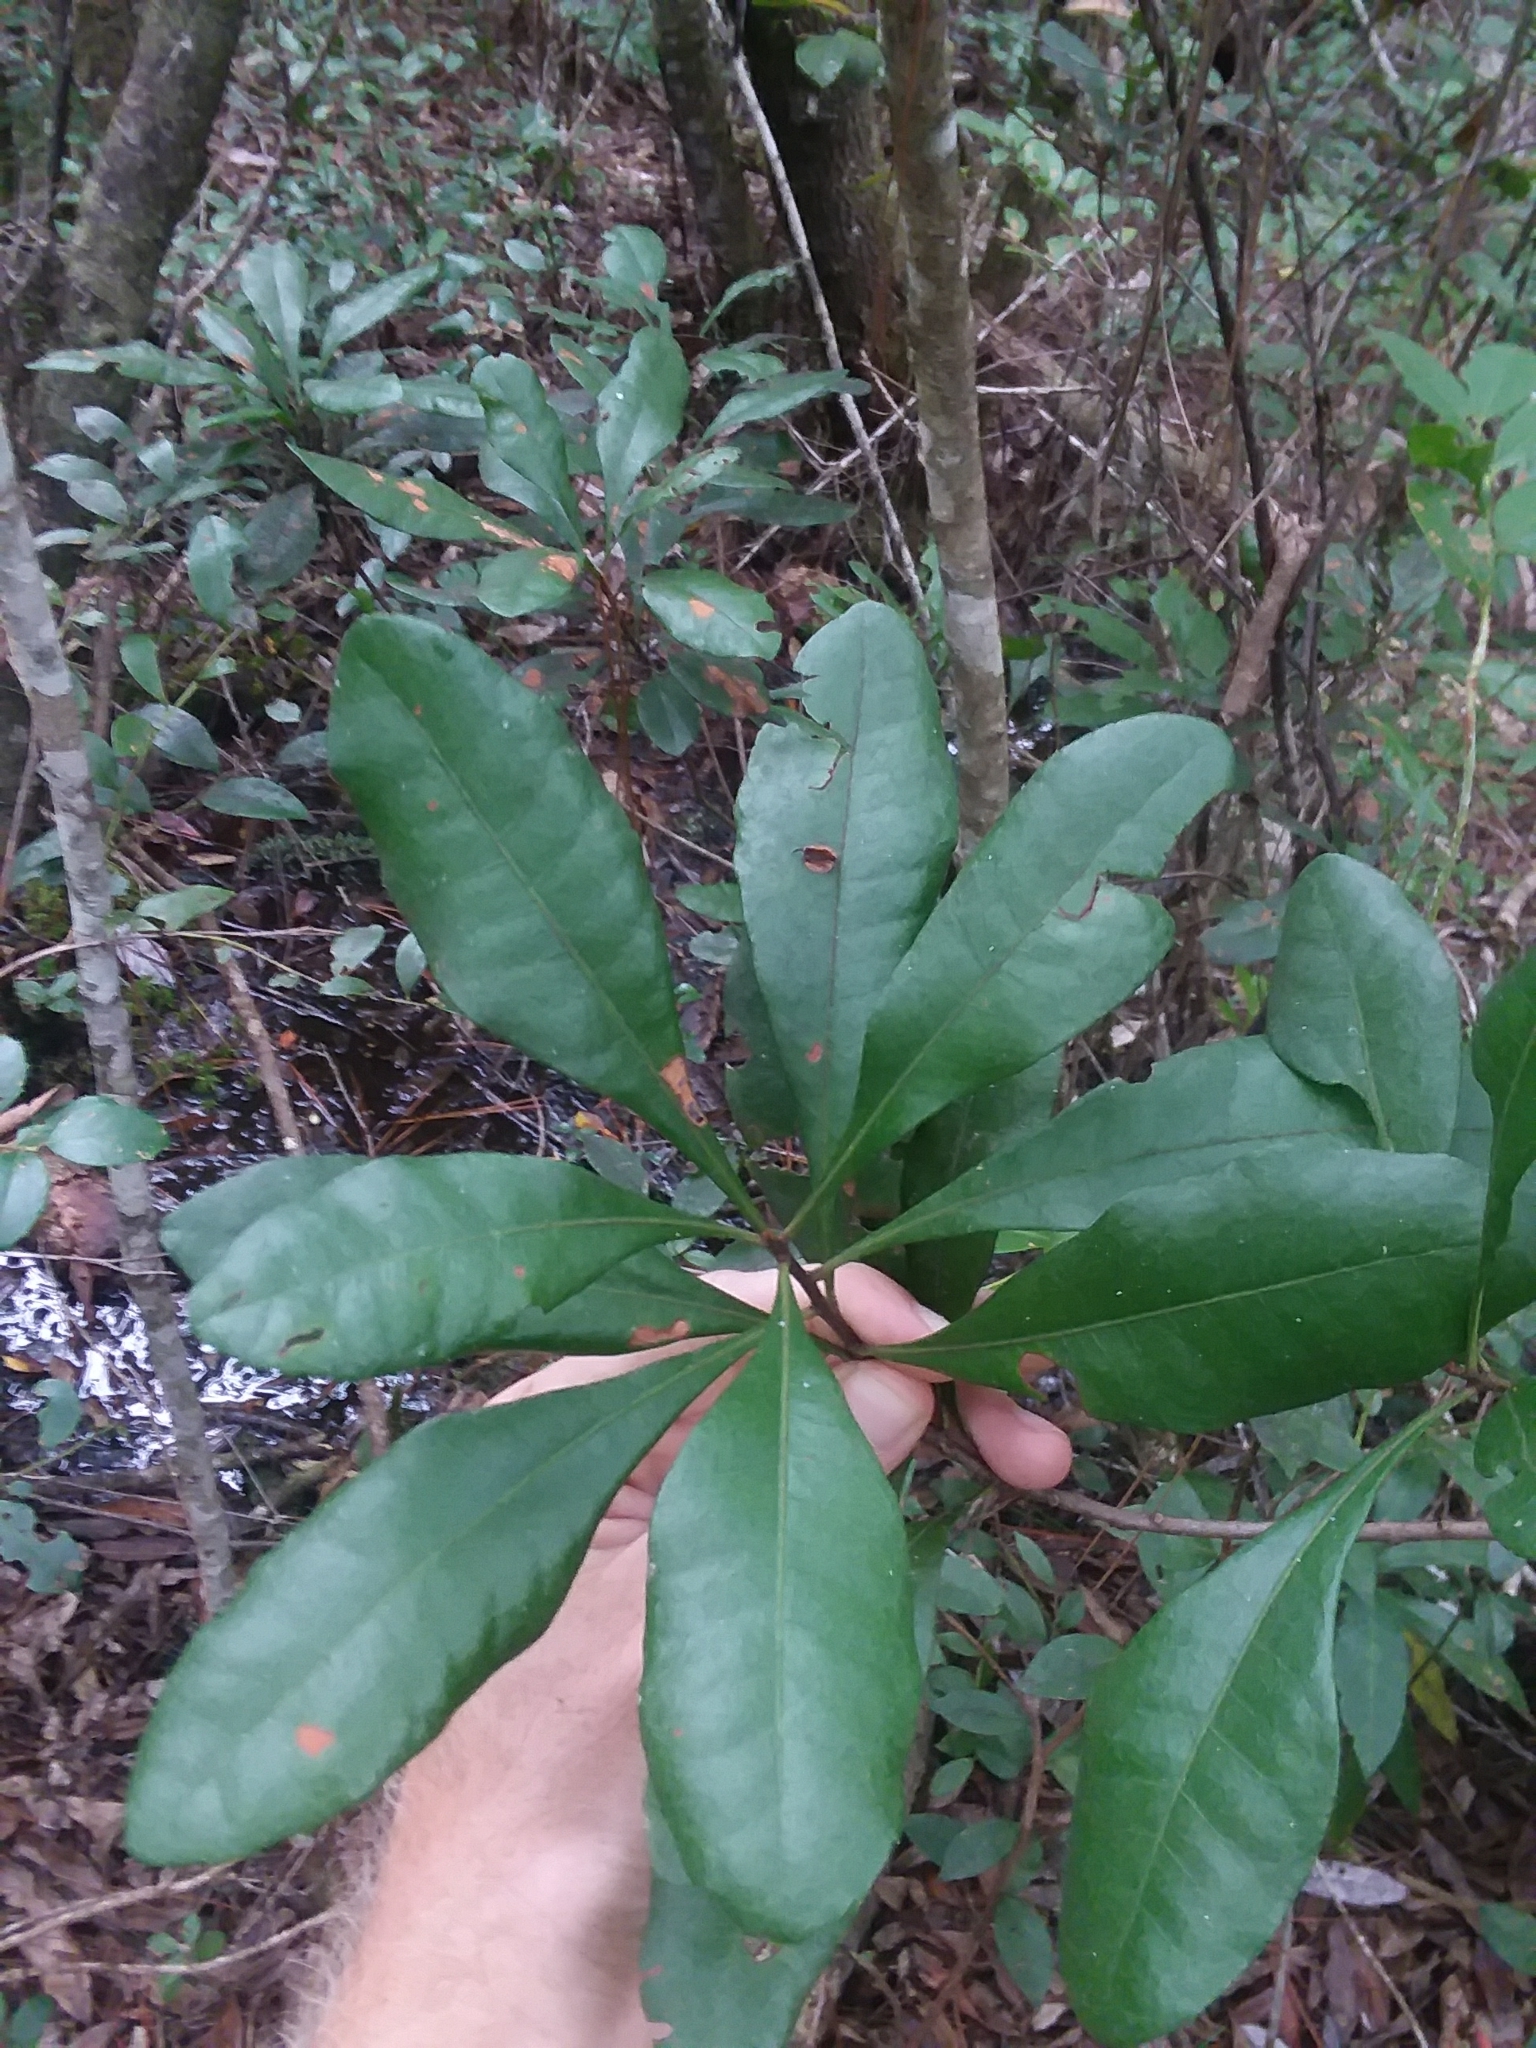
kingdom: Plantae
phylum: Tracheophyta
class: Magnoliopsida
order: Fagales
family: Myricaceae
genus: Morella
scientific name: Morella inodora
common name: Candle-berry
